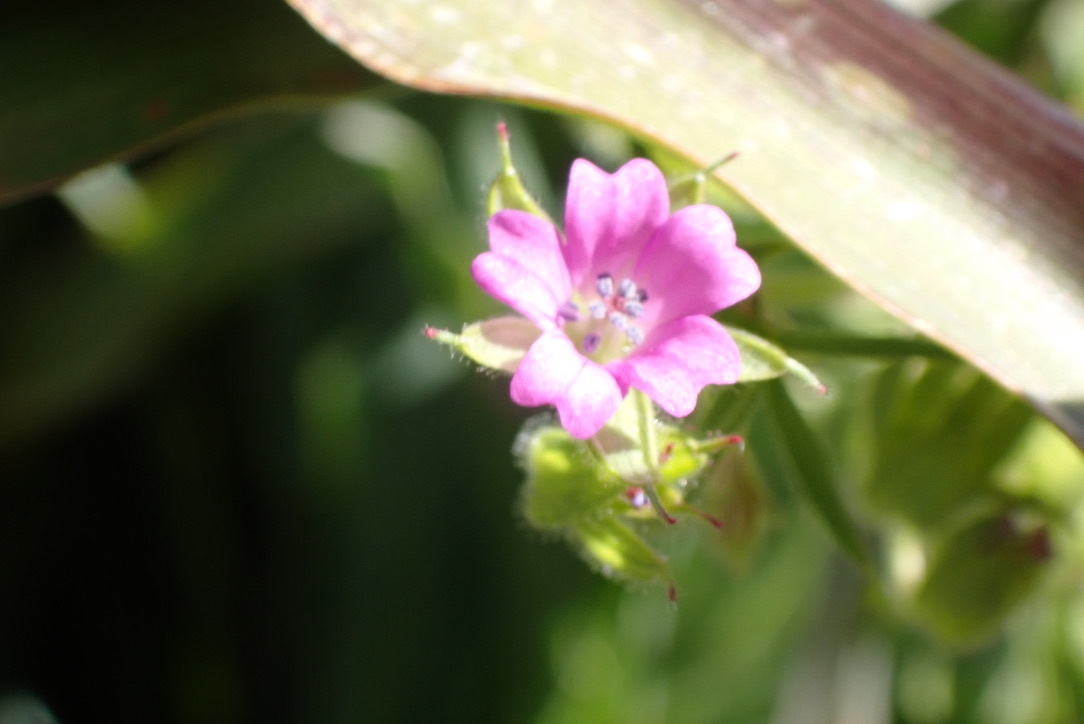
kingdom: Plantae
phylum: Tracheophyta
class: Magnoliopsida
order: Geraniales
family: Geraniaceae
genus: Geranium
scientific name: Geranium dissectum
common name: Cut-leaved crane's-bill
